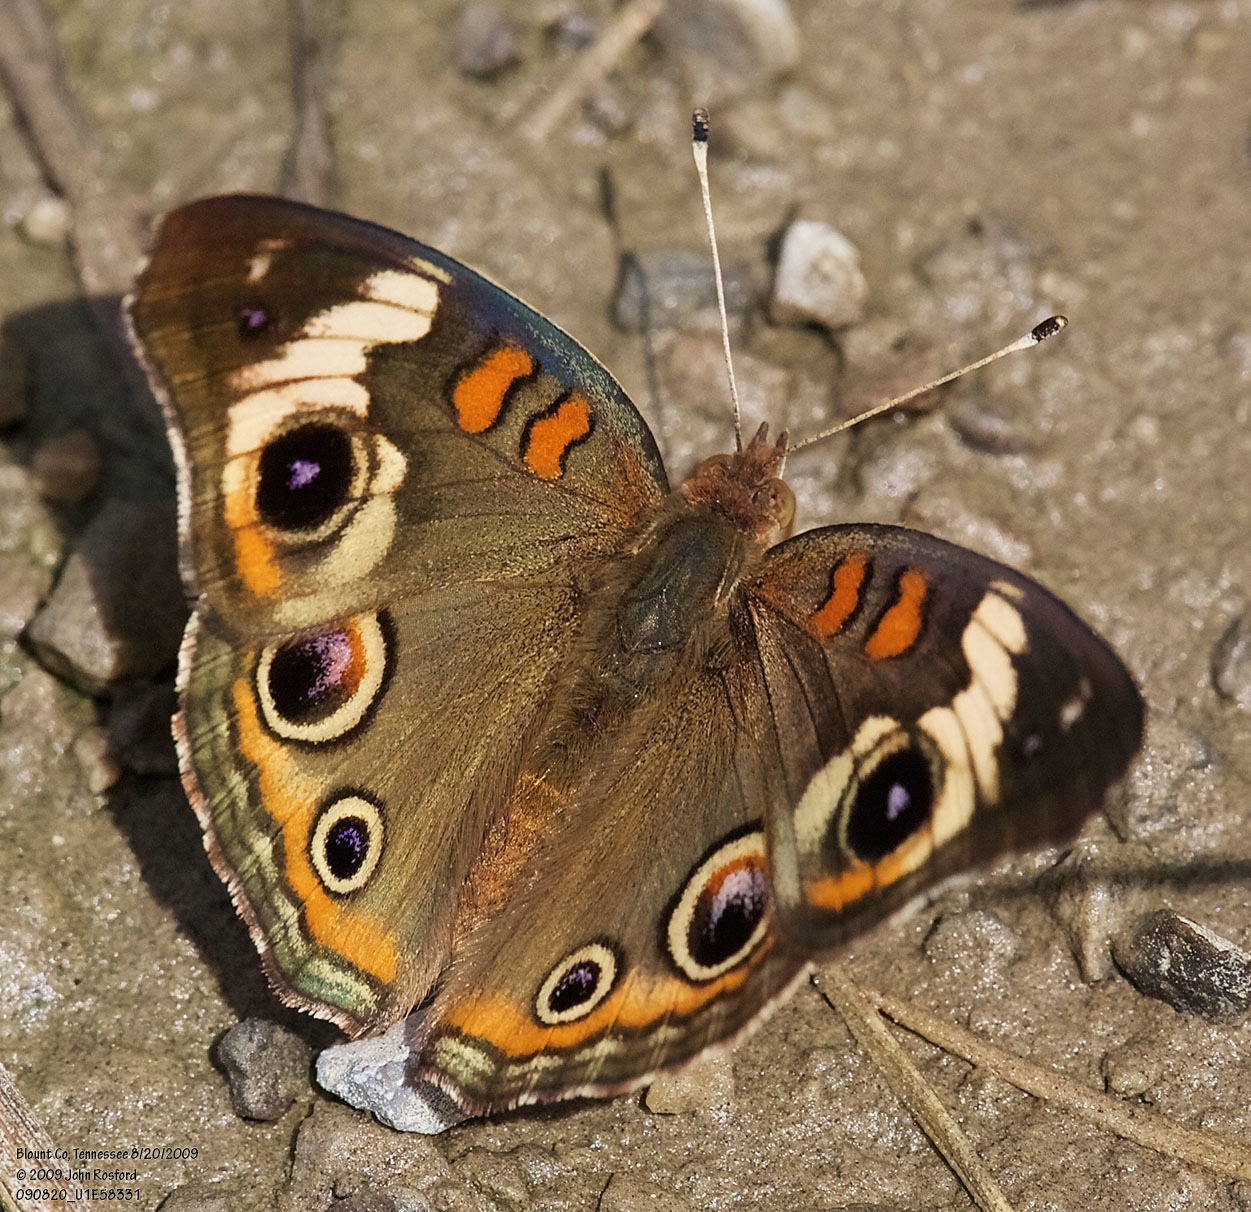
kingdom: Animalia
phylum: Arthropoda
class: Insecta
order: Lepidoptera
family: Nymphalidae
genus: Junonia
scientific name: Junonia coenia
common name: Common buckeye
